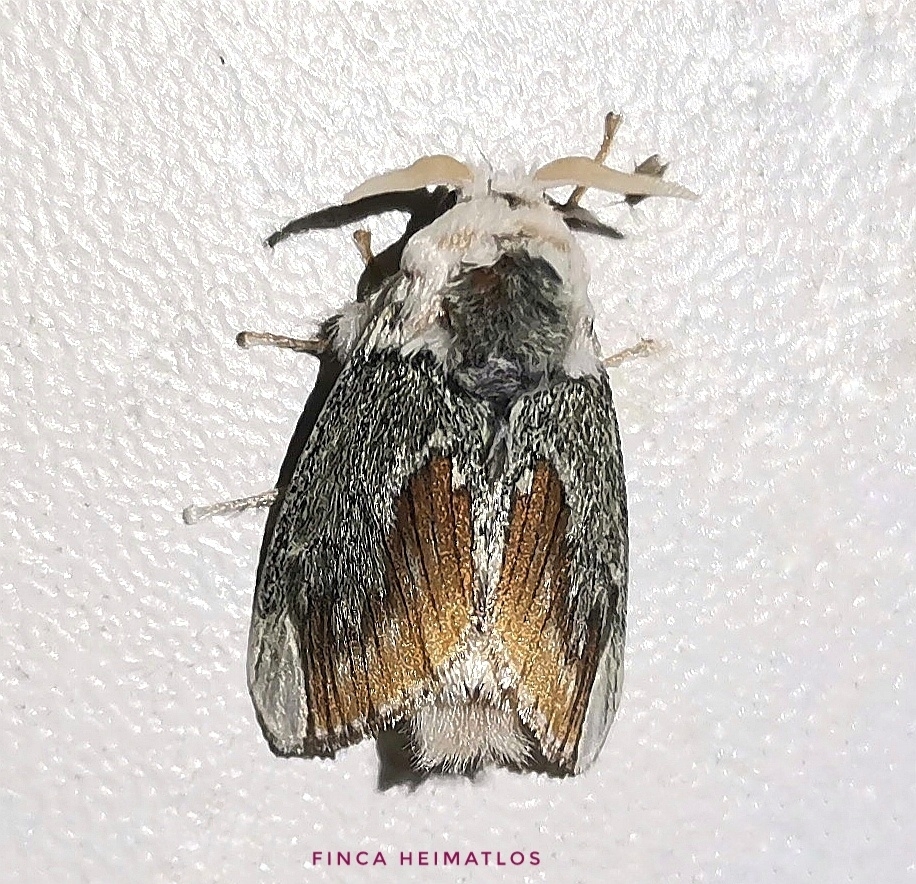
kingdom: Animalia
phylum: Arthropoda
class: Insecta
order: Lepidoptera
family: Megalopygidae
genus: Mesoscia
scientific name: Mesoscia terminata
